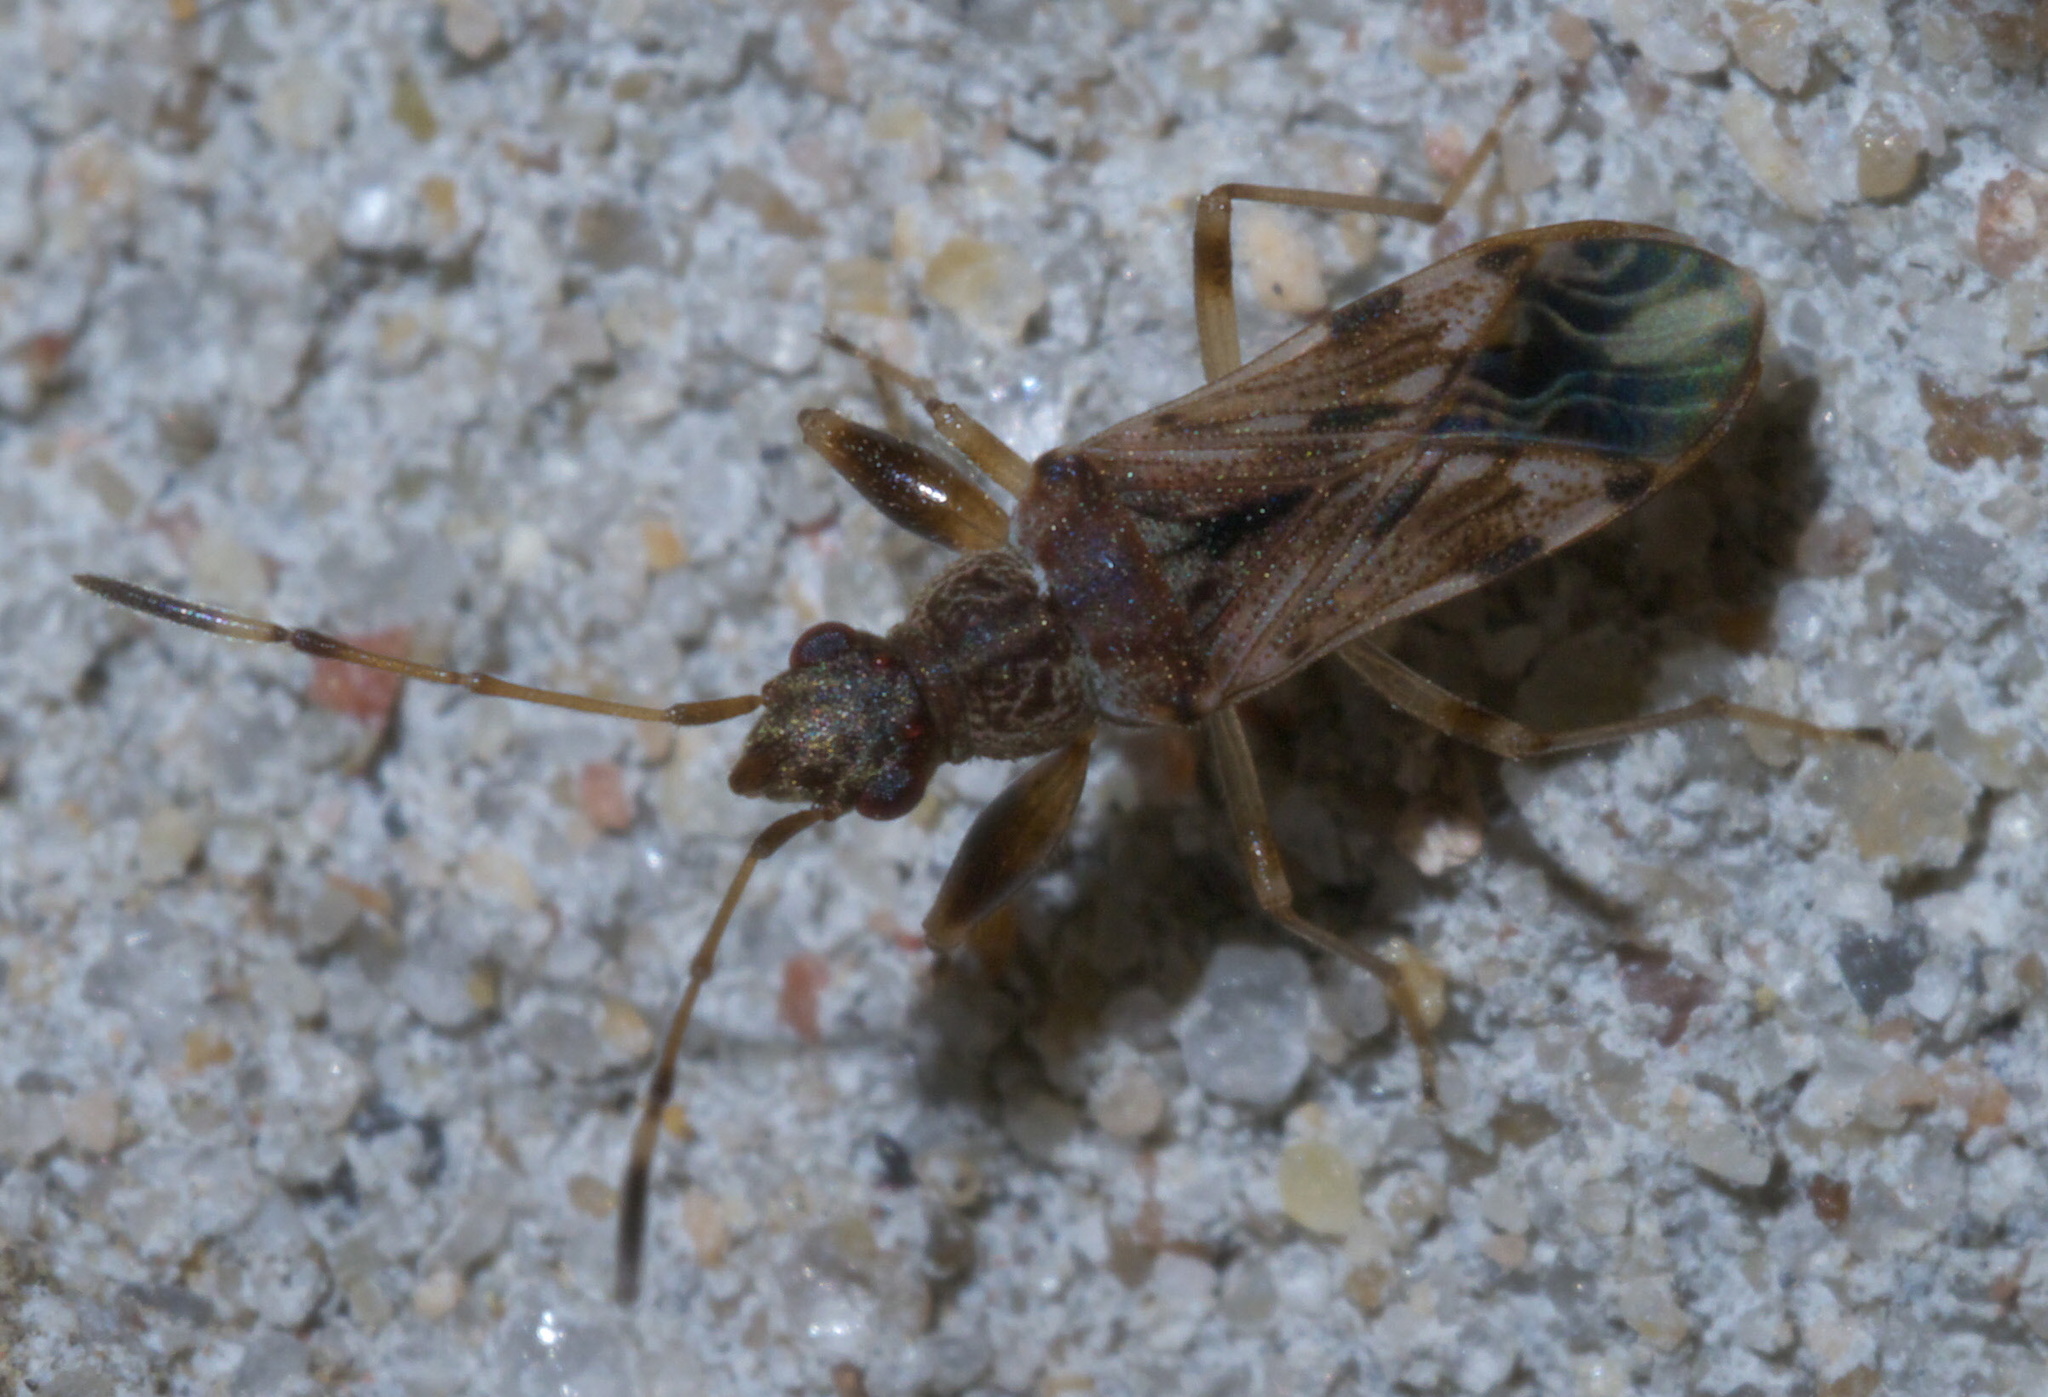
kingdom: Animalia
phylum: Arthropoda
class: Insecta
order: Hemiptera
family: Rhyparochromidae
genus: Neopamera
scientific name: Neopamera albocincta
